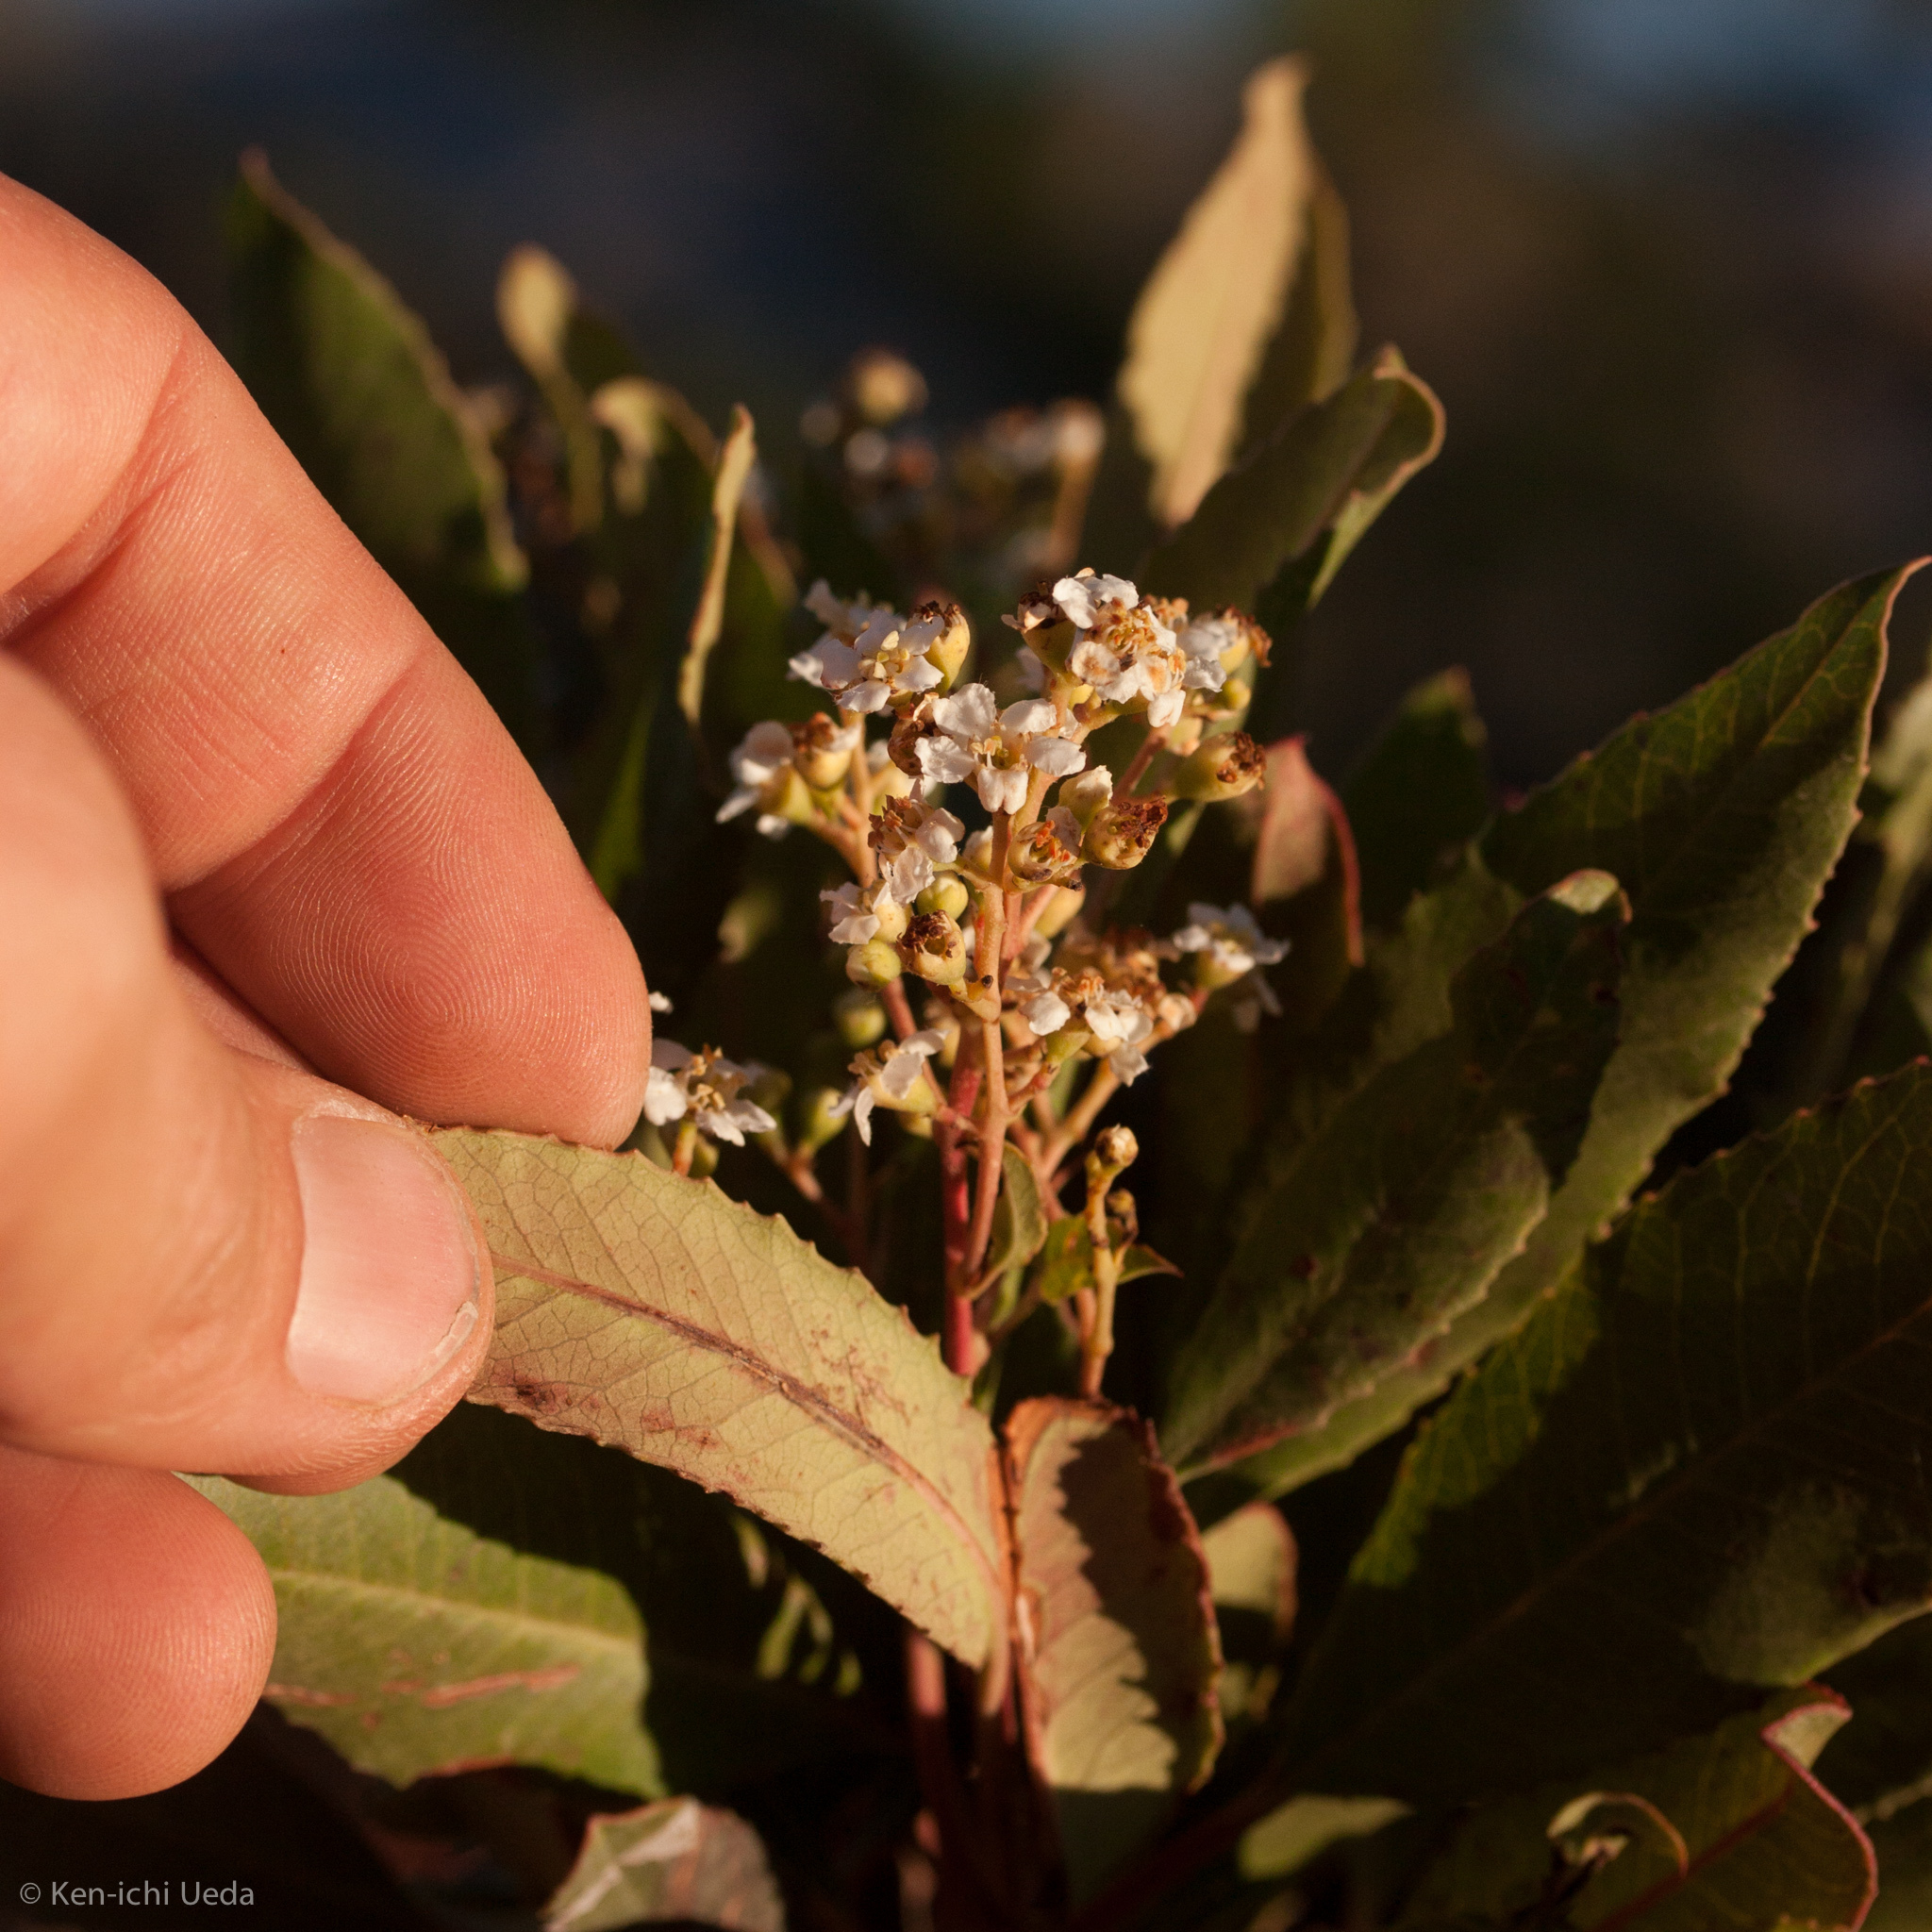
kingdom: Plantae
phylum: Tracheophyta
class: Magnoliopsida
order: Rosales
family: Rosaceae
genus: Heteromeles
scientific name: Heteromeles arbutifolia
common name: California-holly
